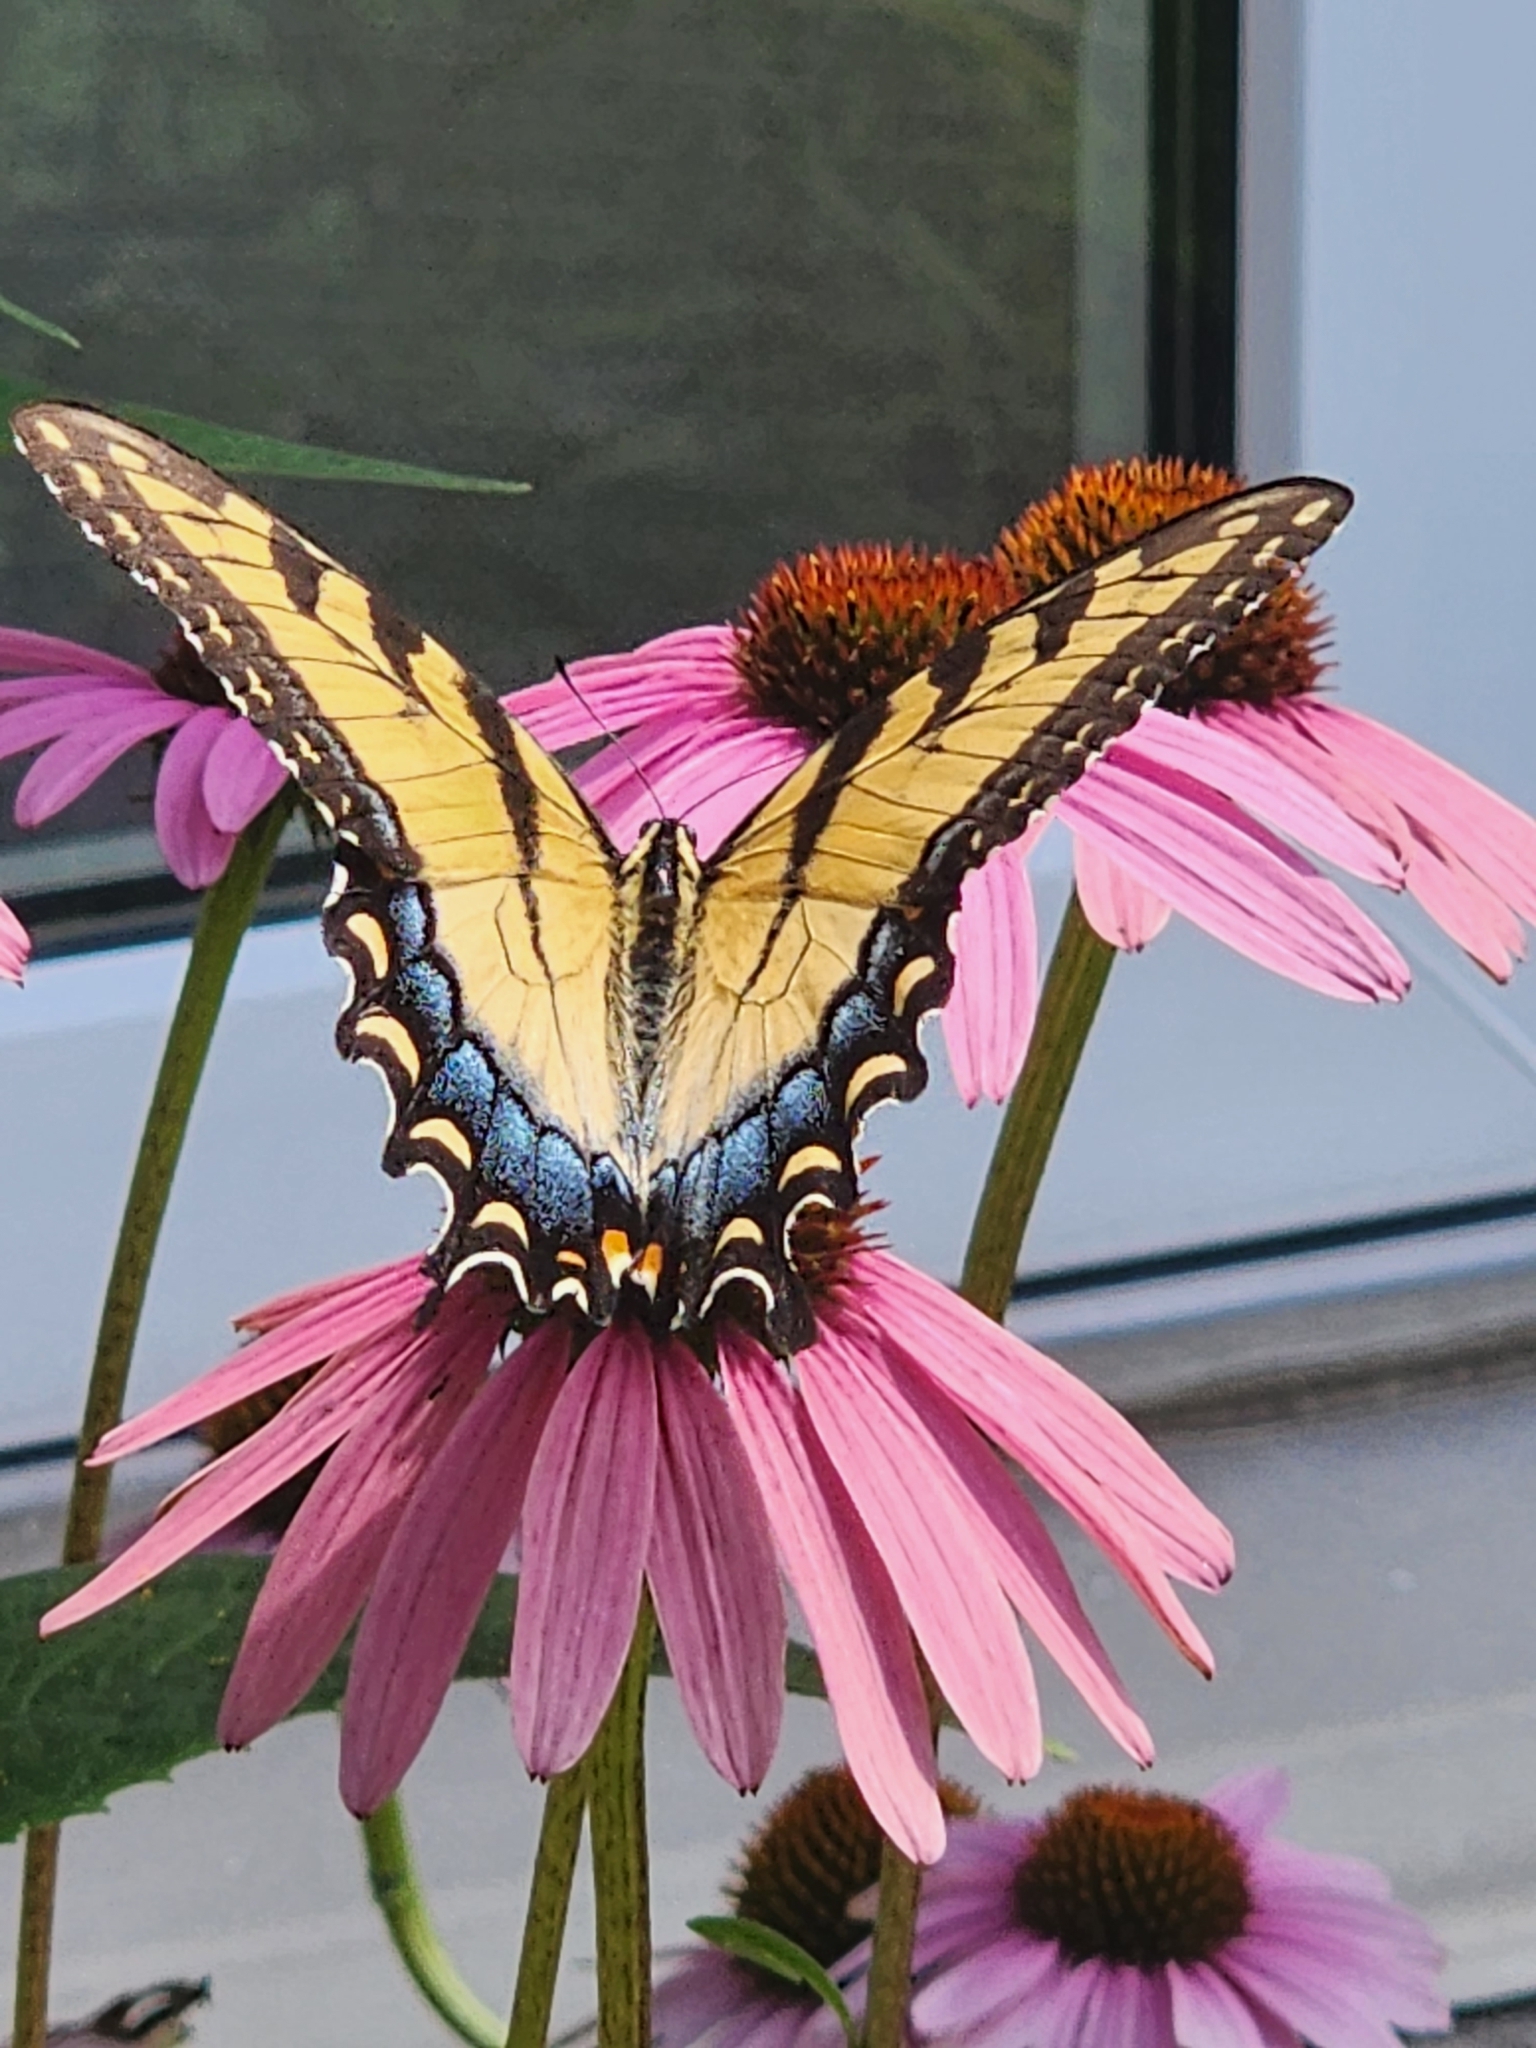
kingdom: Animalia
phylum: Arthropoda
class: Insecta
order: Lepidoptera
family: Papilionidae
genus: Papilio
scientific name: Papilio glaucus
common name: Tiger swallowtail
